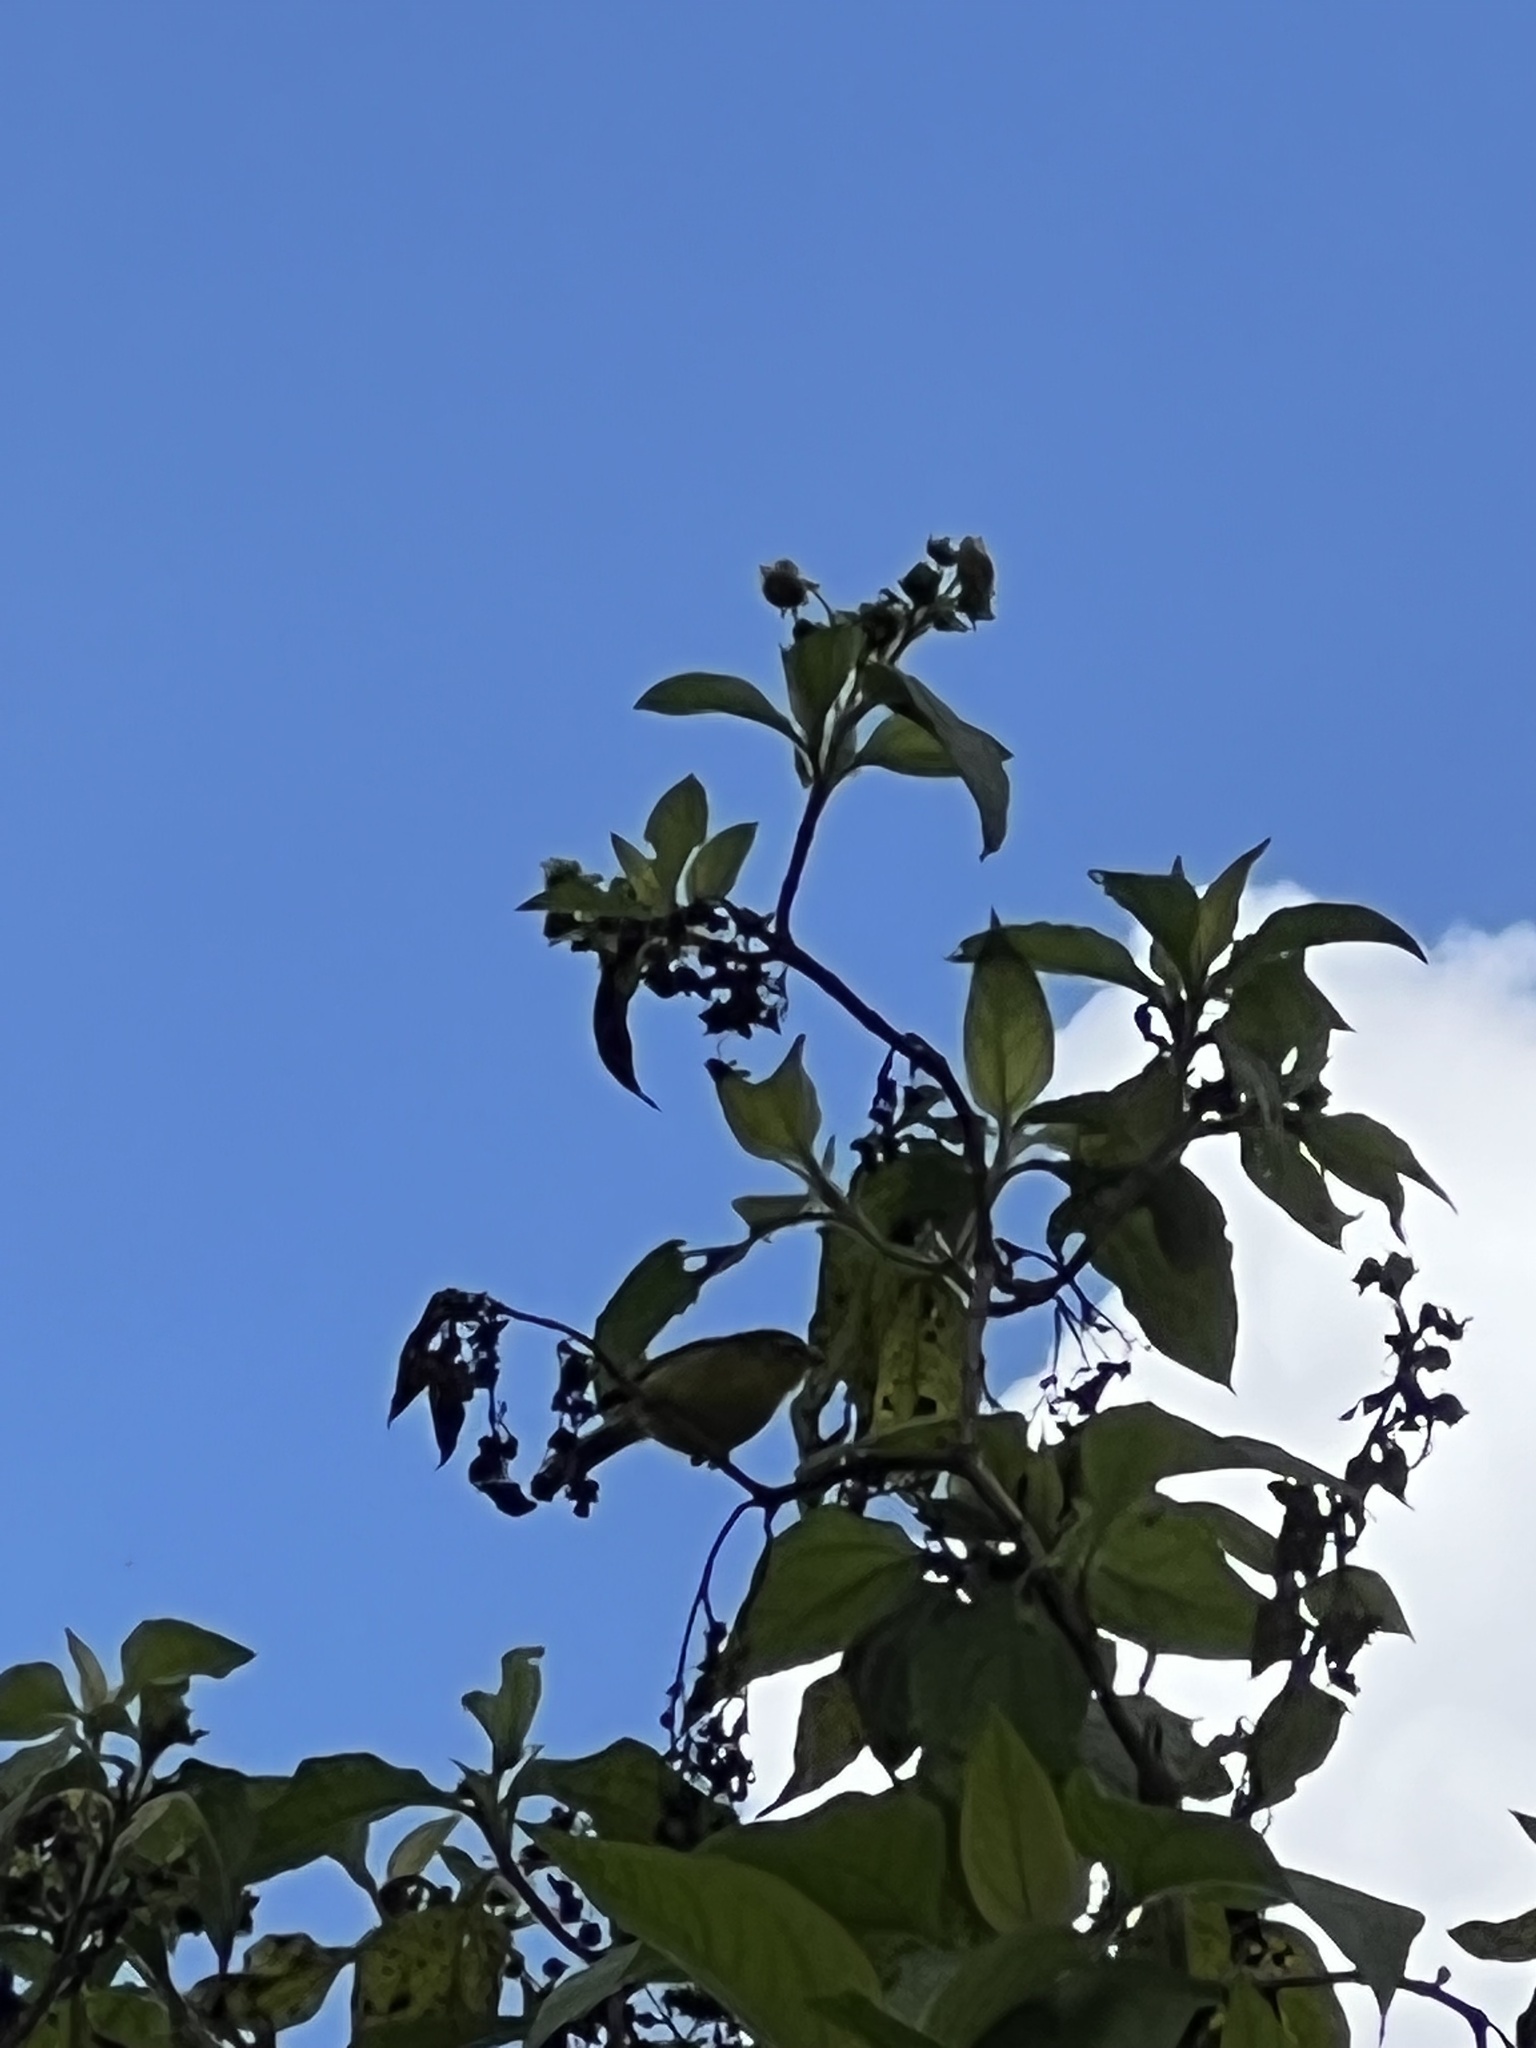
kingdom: Animalia
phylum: Chordata
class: Aves
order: Passeriformes
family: Thraupidae
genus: Thlypopsis
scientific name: Thlypopsis superciliaris
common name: Superciliaried hemispingus
